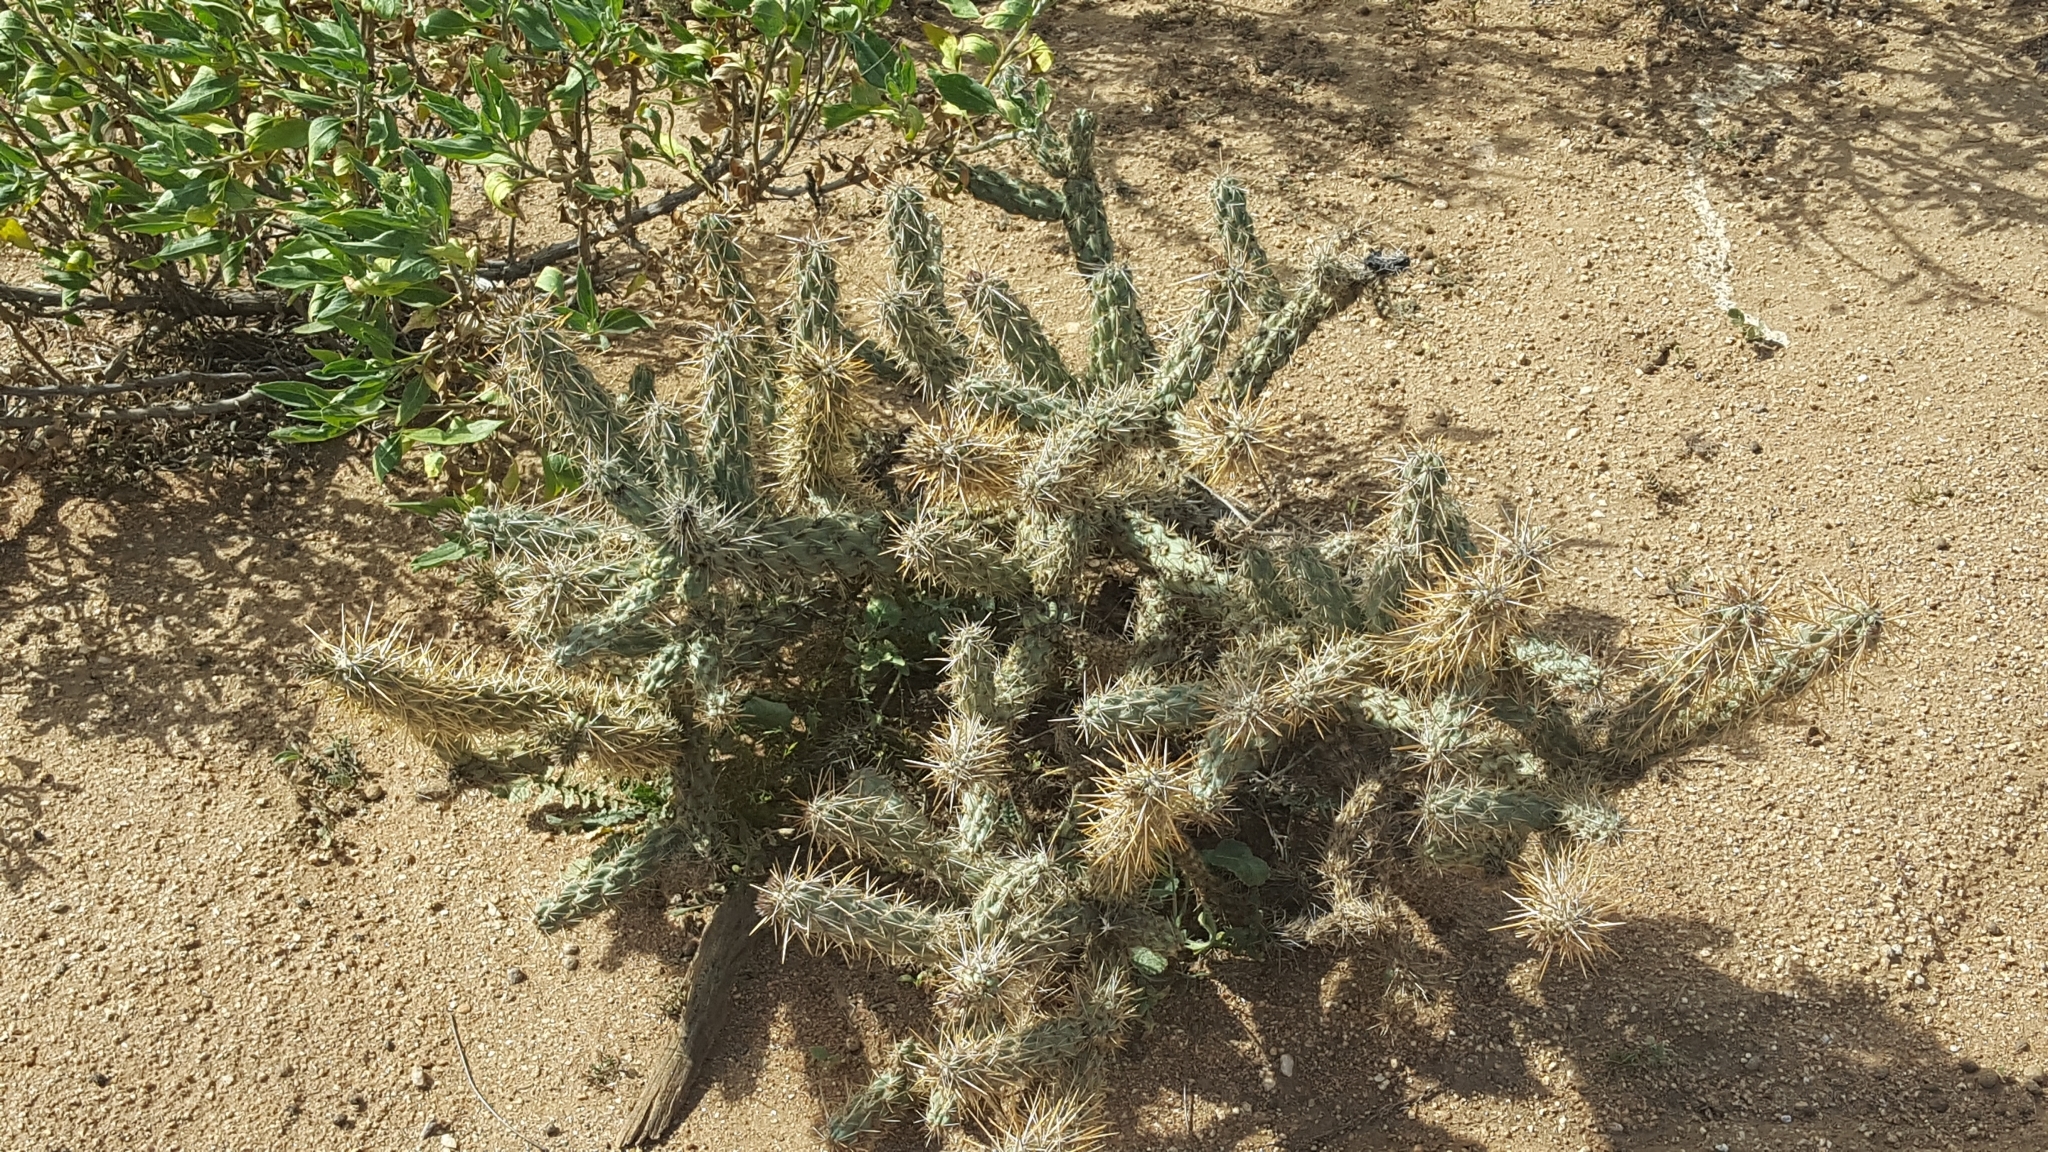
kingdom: Plantae
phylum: Tracheophyta
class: Magnoliopsida
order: Caryophyllales
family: Cactaceae
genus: Cylindropuntia
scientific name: Cylindropuntia bernardina
